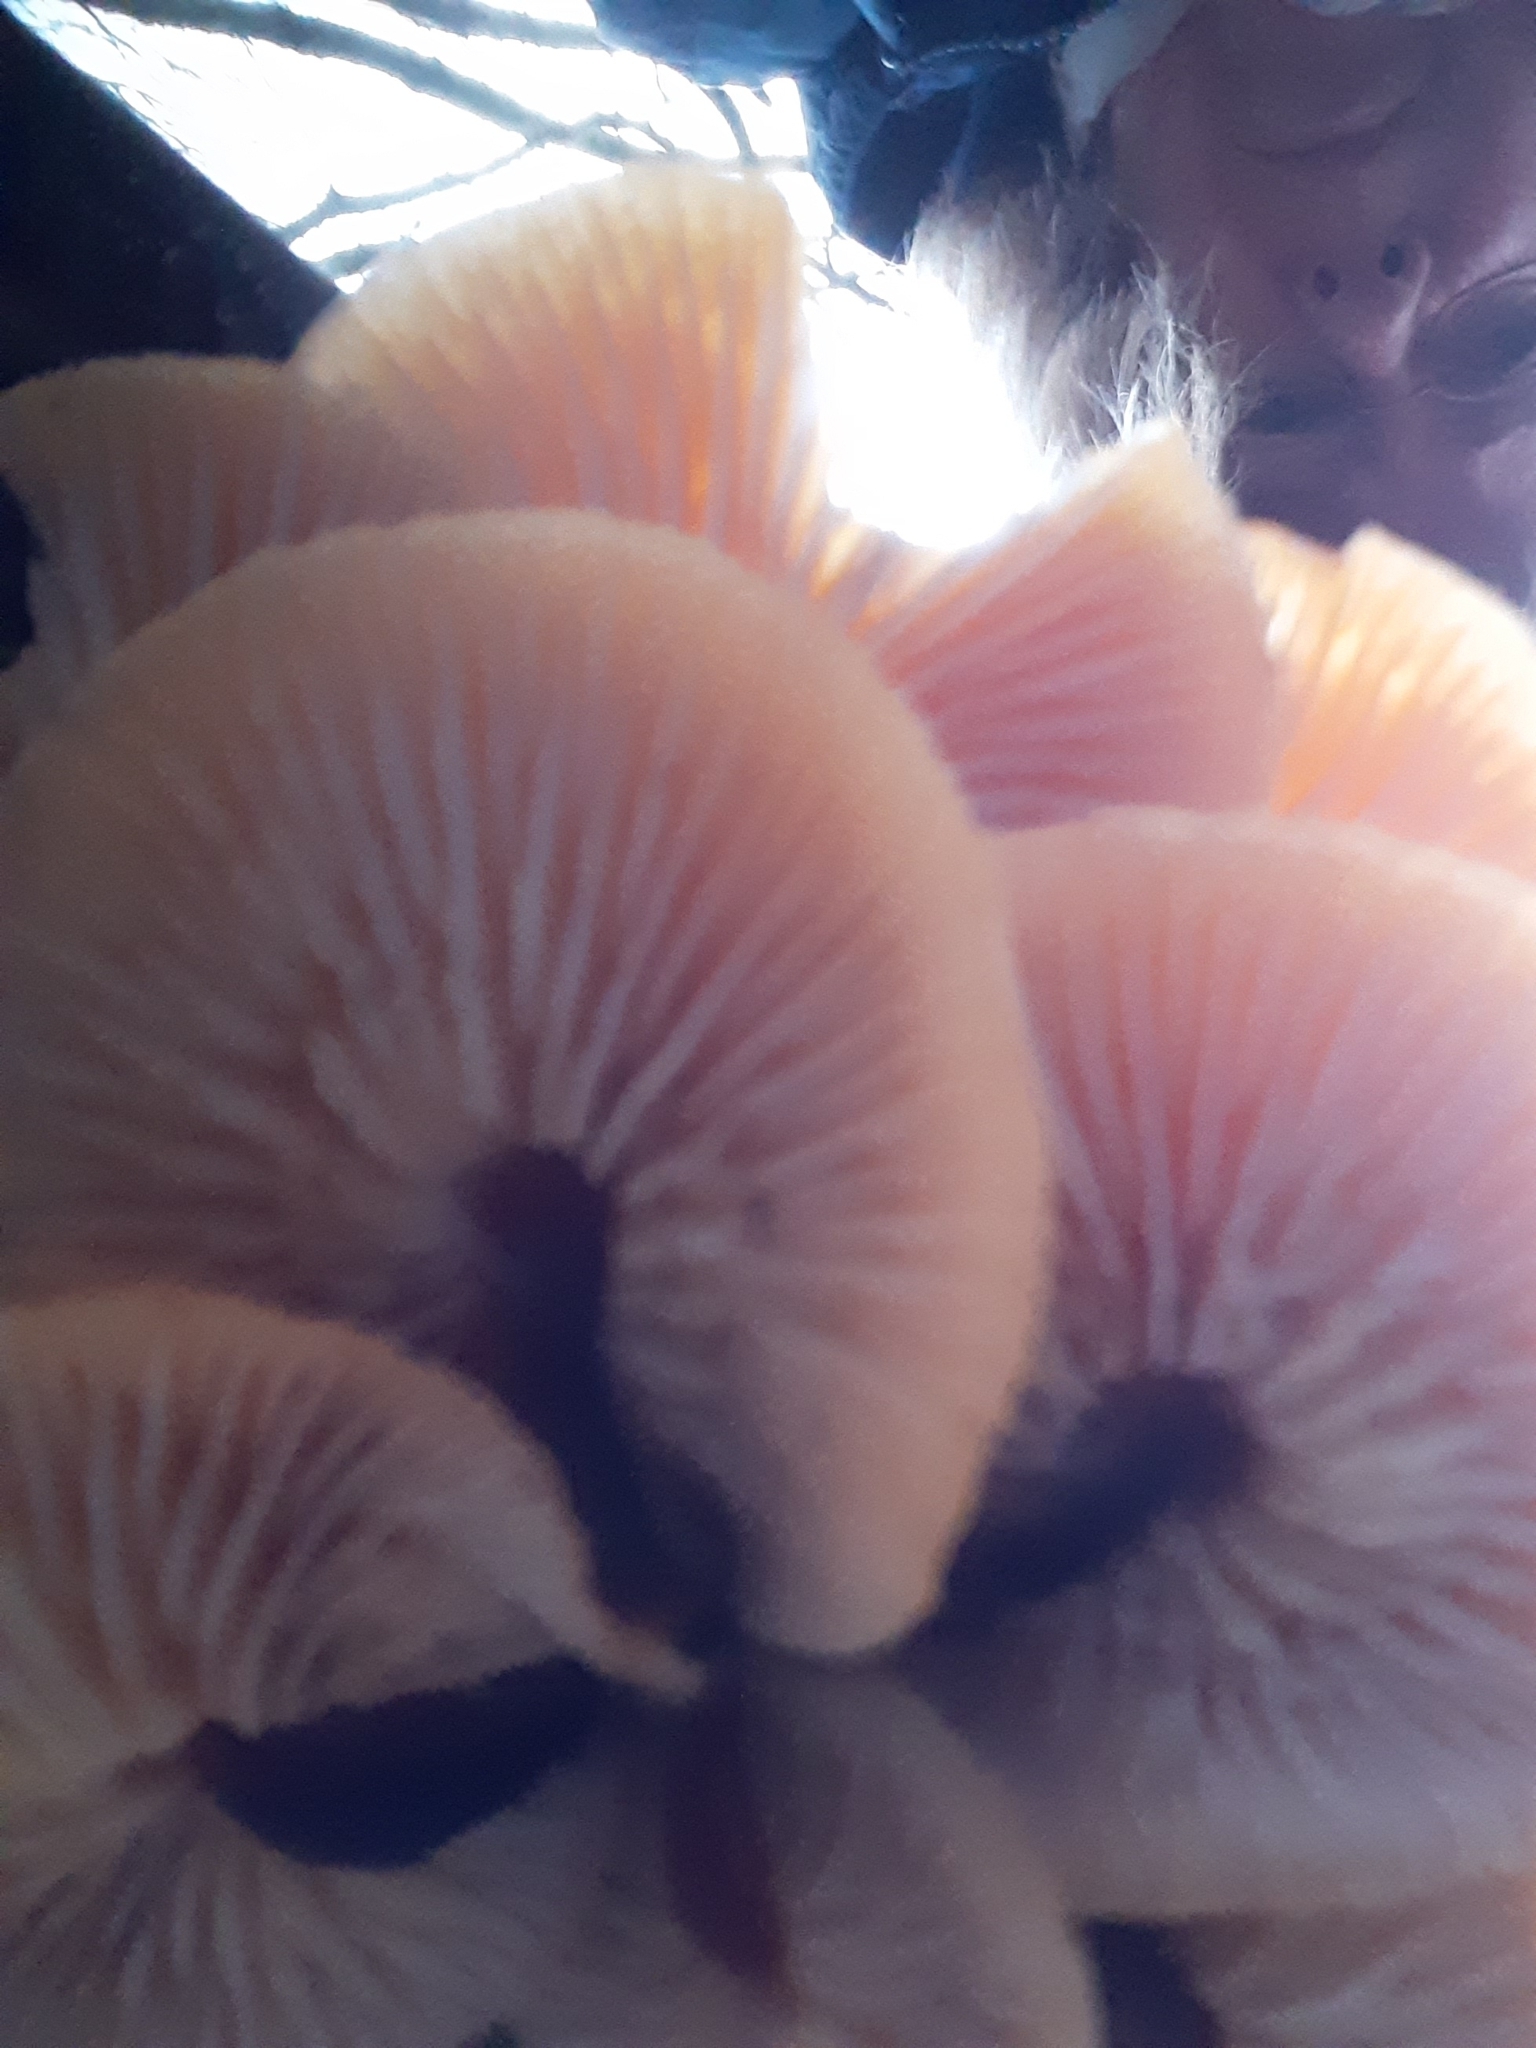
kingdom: Fungi
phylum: Basidiomycota
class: Agaricomycetes
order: Agaricales
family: Physalacriaceae
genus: Flammulina
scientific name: Flammulina
